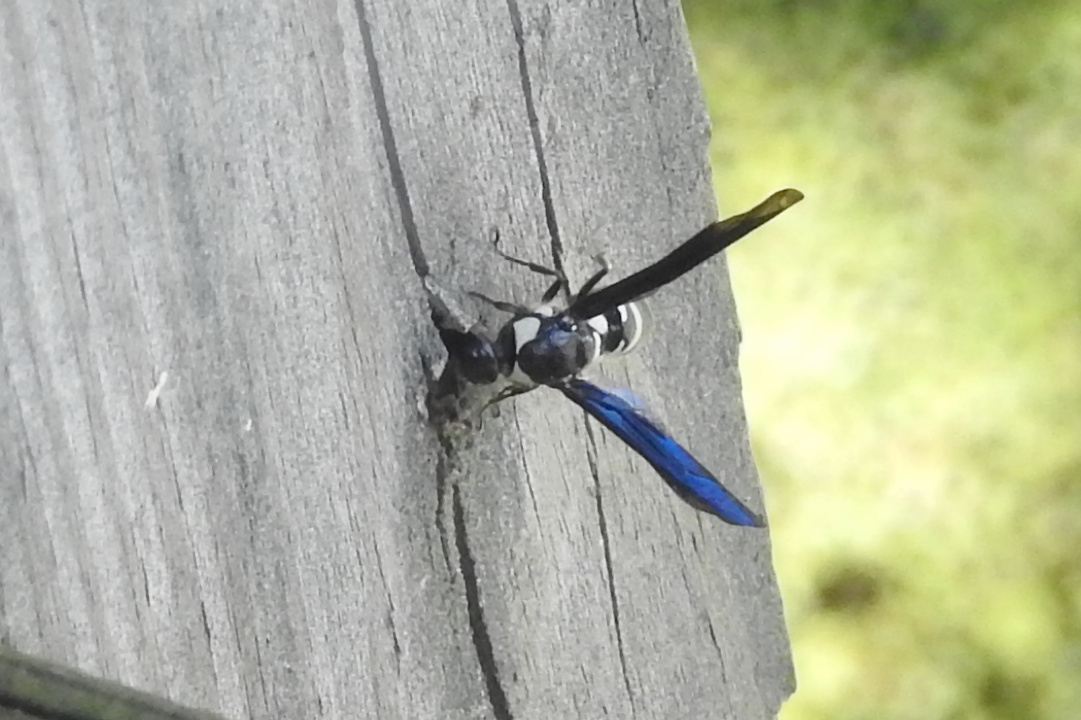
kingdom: Animalia
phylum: Arthropoda
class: Insecta
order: Hymenoptera
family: Eumenidae
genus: Pseudodynerus
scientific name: Pseudodynerus quadrisectus
